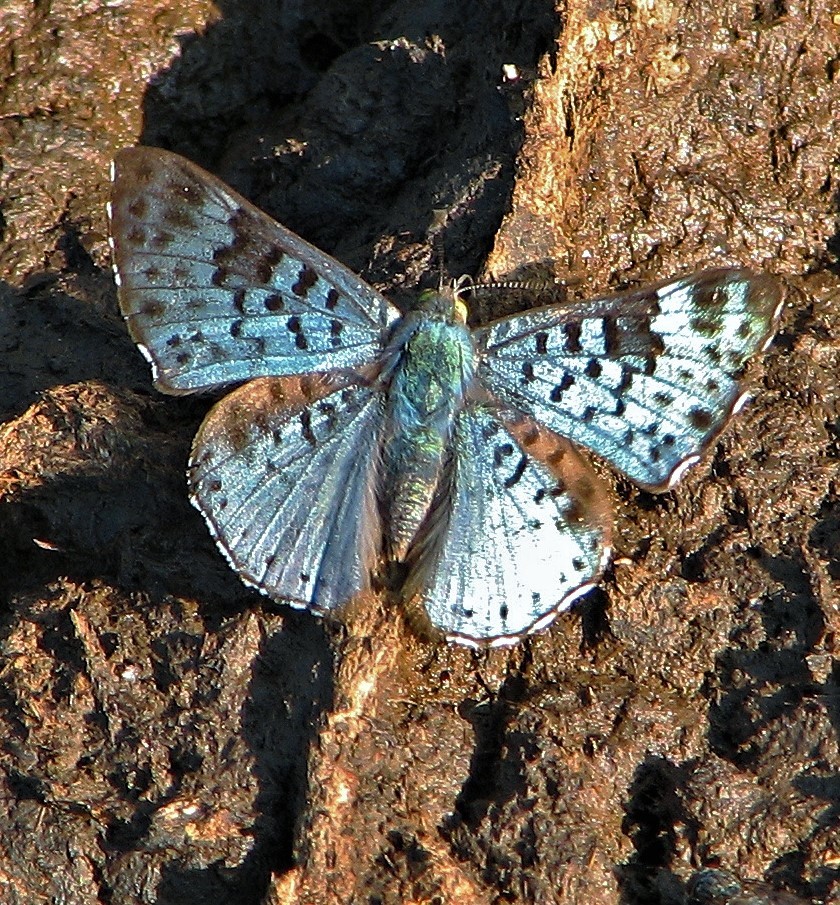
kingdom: Animalia
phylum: Arthropoda
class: Insecta
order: Lepidoptera
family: Riodinidae
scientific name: Riodinidae
